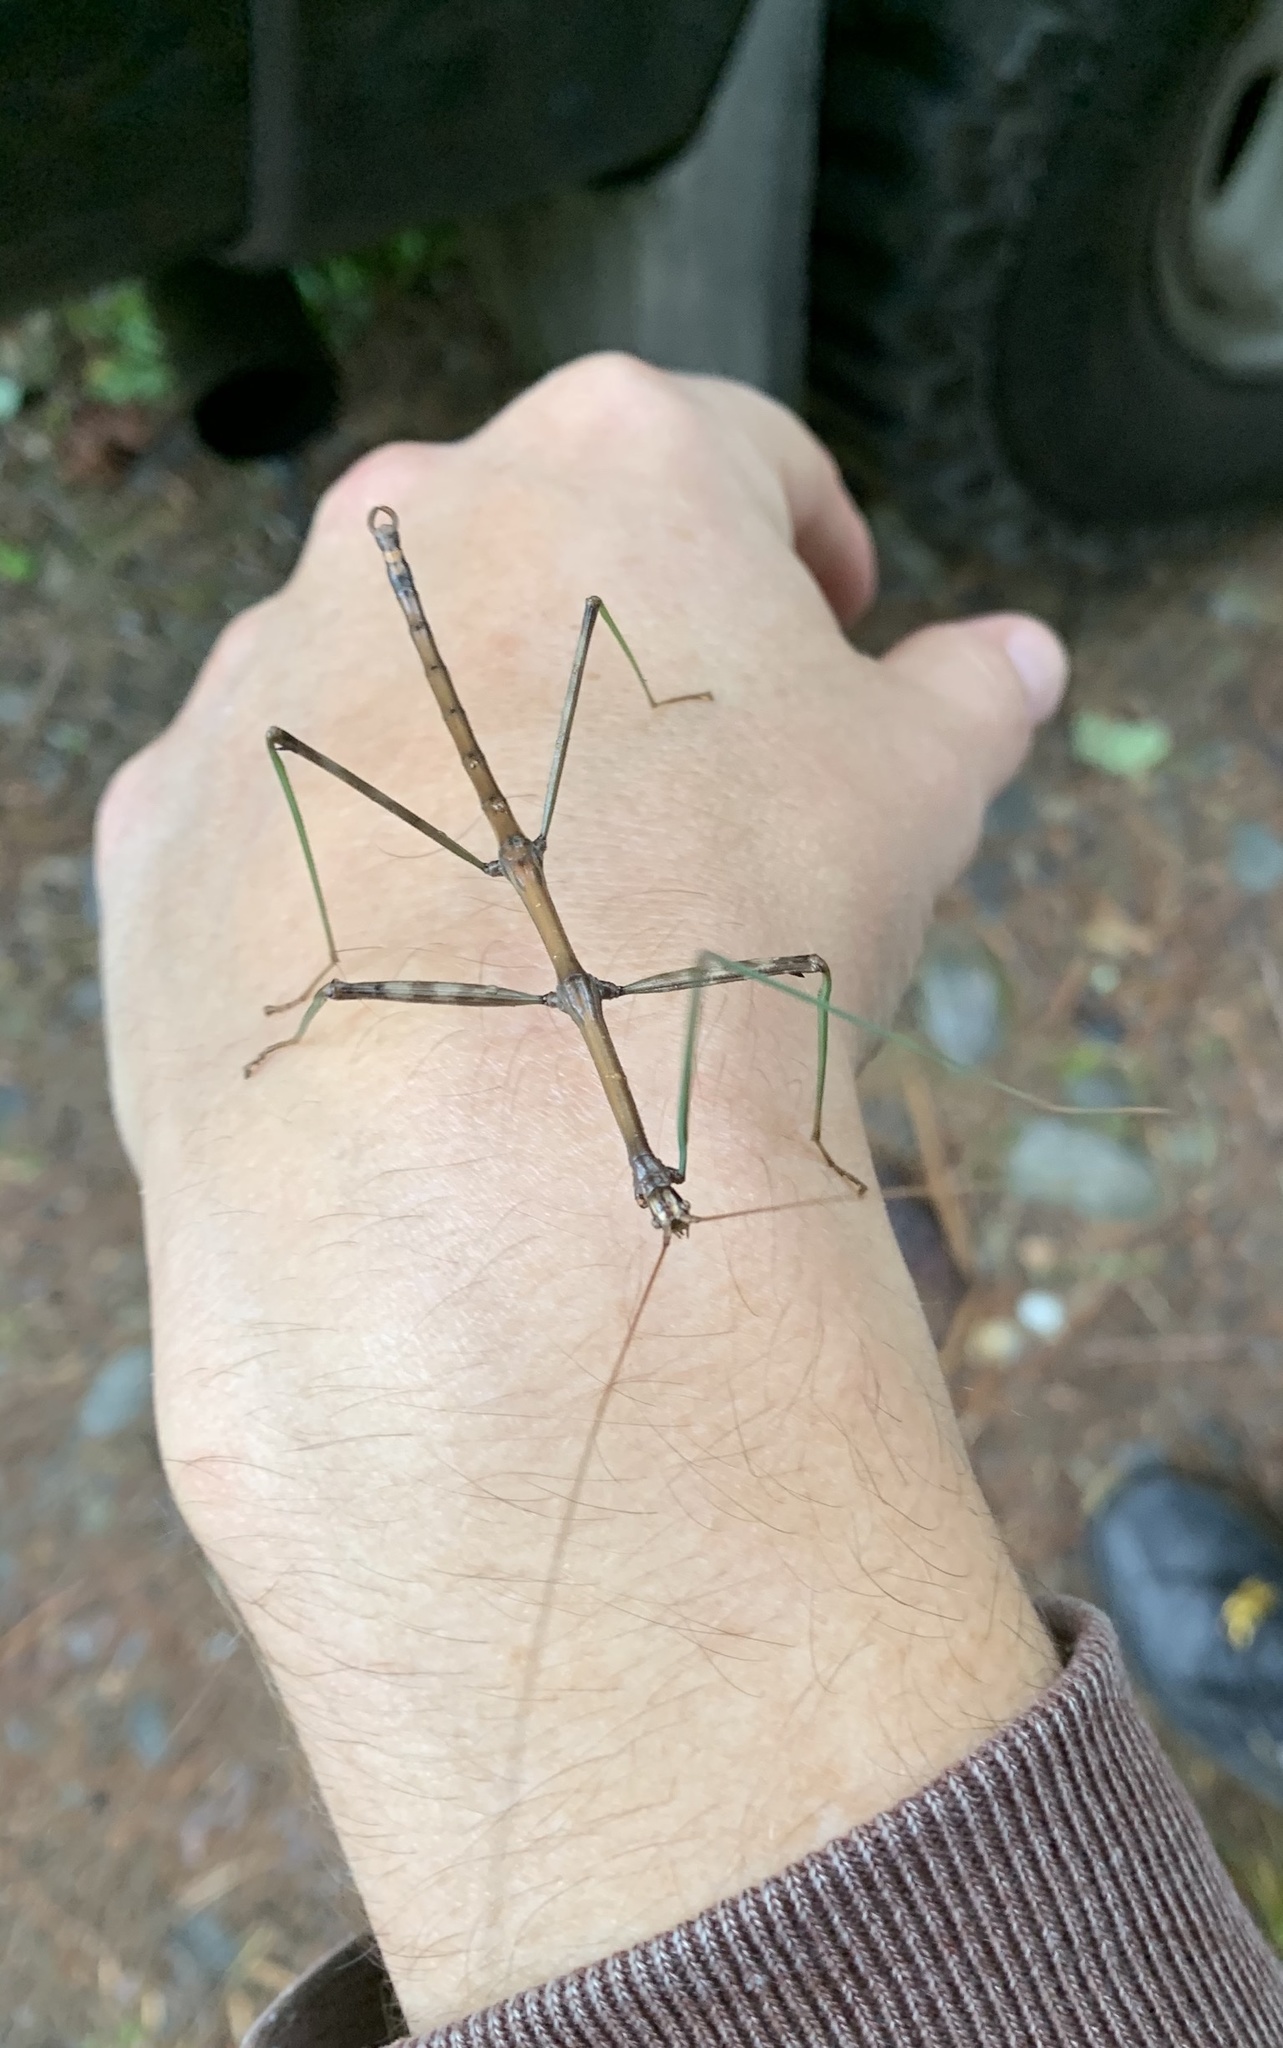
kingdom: Animalia
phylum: Arthropoda
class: Insecta
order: Phasmida
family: Diapheromeridae
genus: Diapheromera
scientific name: Diapheromera femorata
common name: Common american walkingstick
